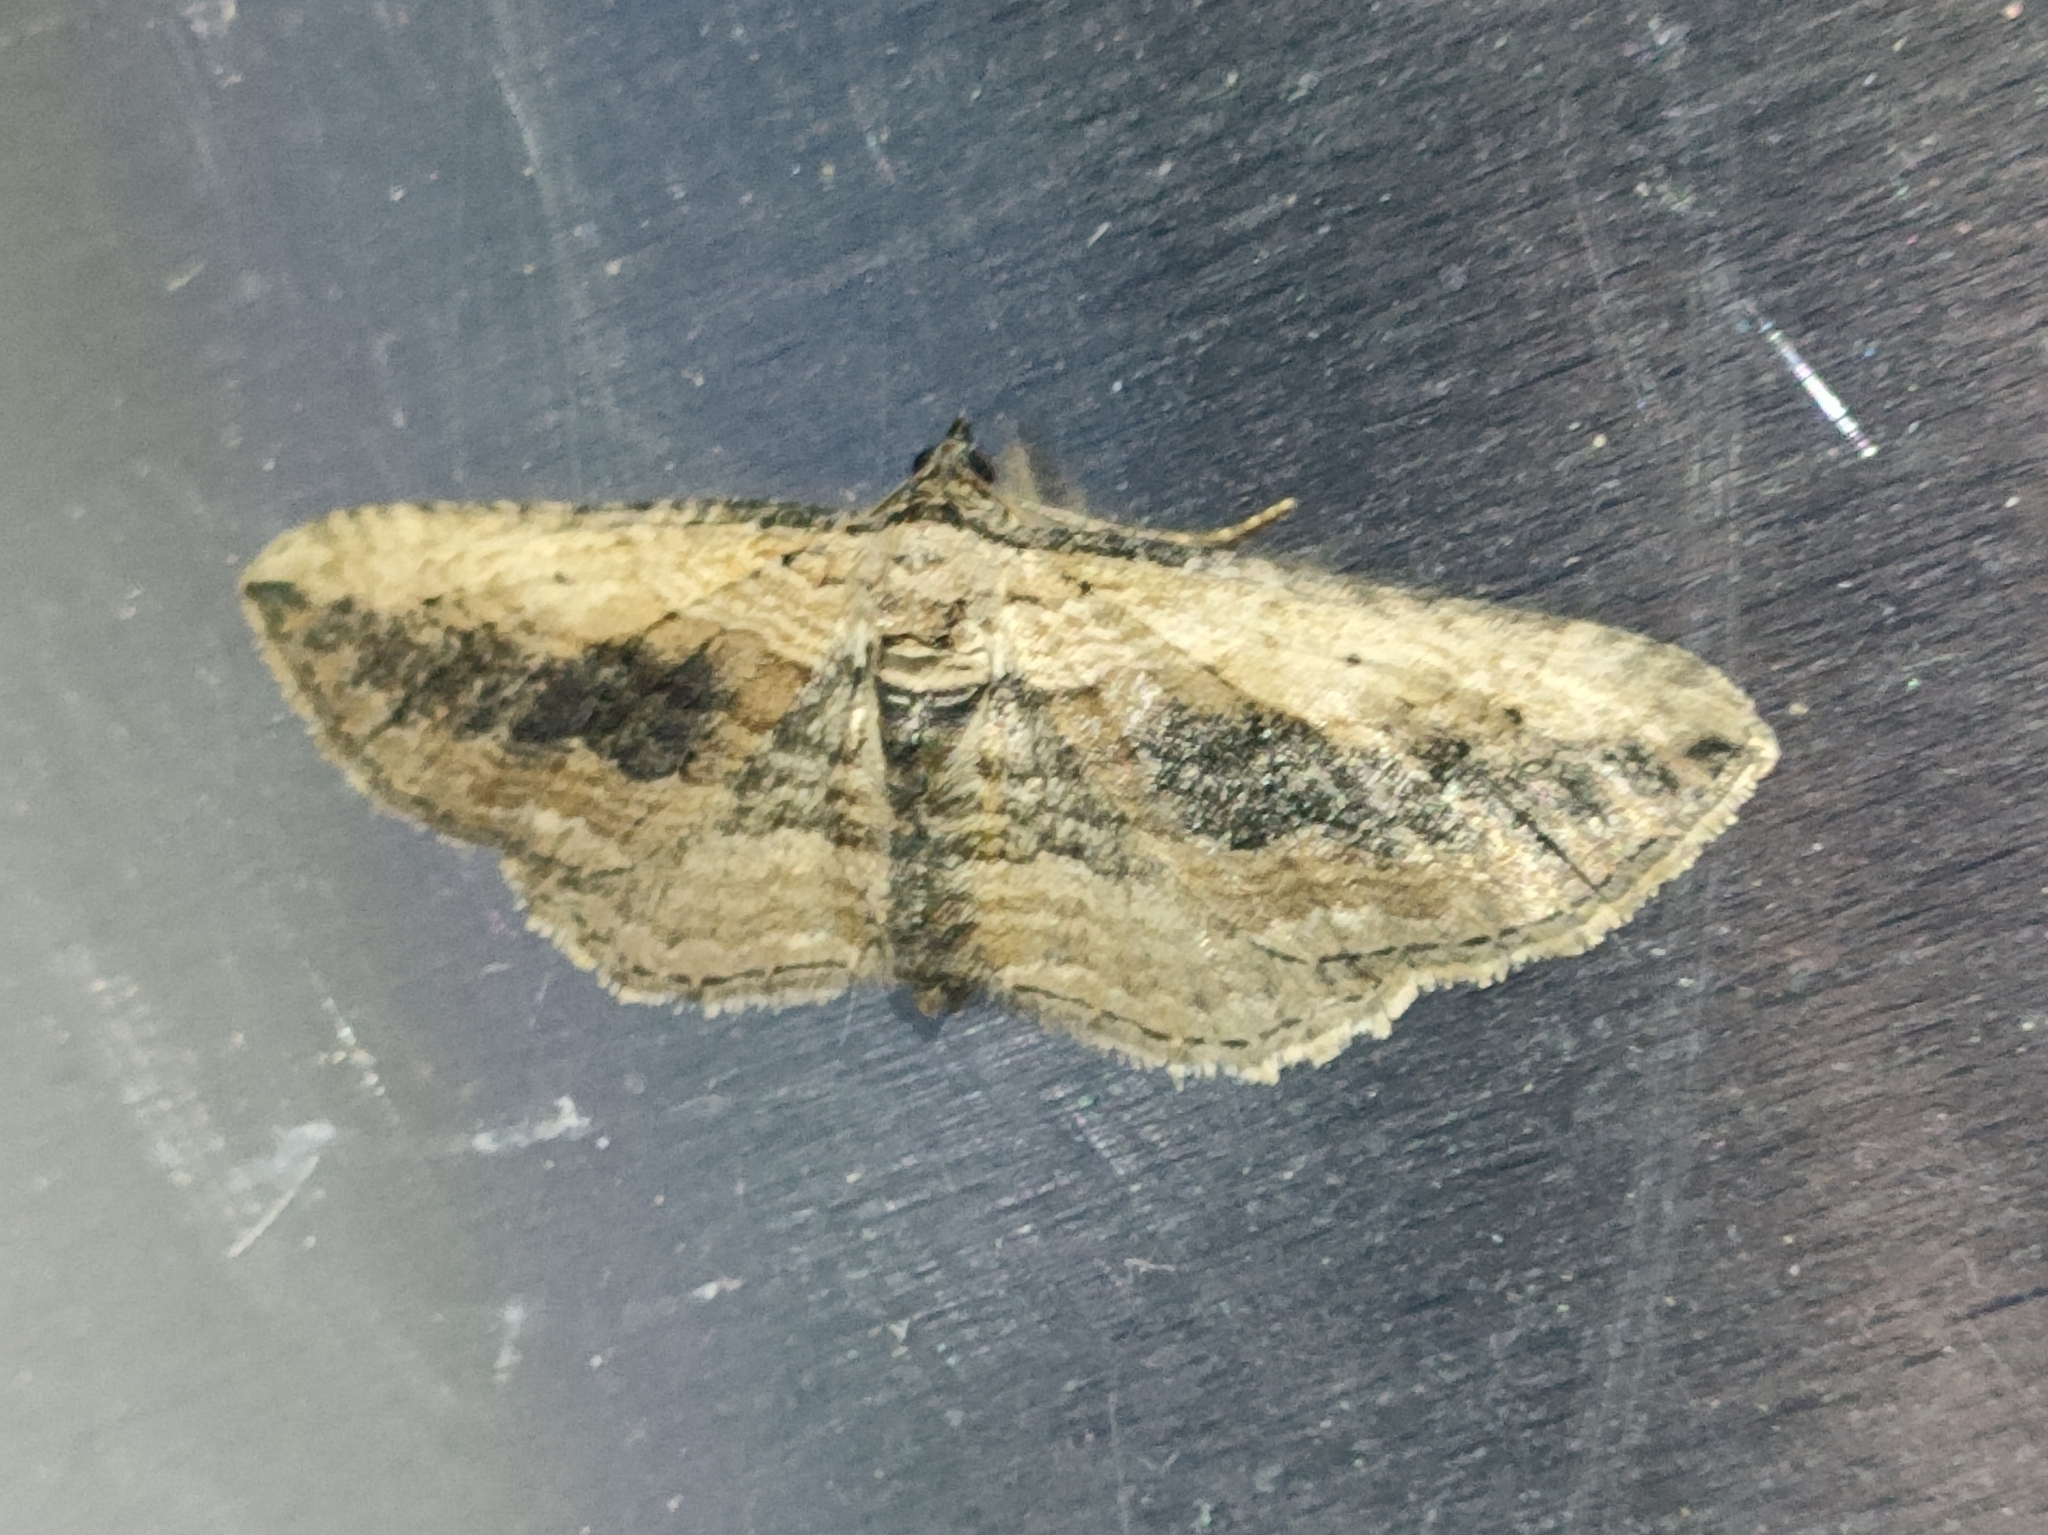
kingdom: Animalia
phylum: Arthropoda
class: Insecta
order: Lepidoptera
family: Geometridae
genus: Horisme
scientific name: Horisme vitalbata
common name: Small waved umber
